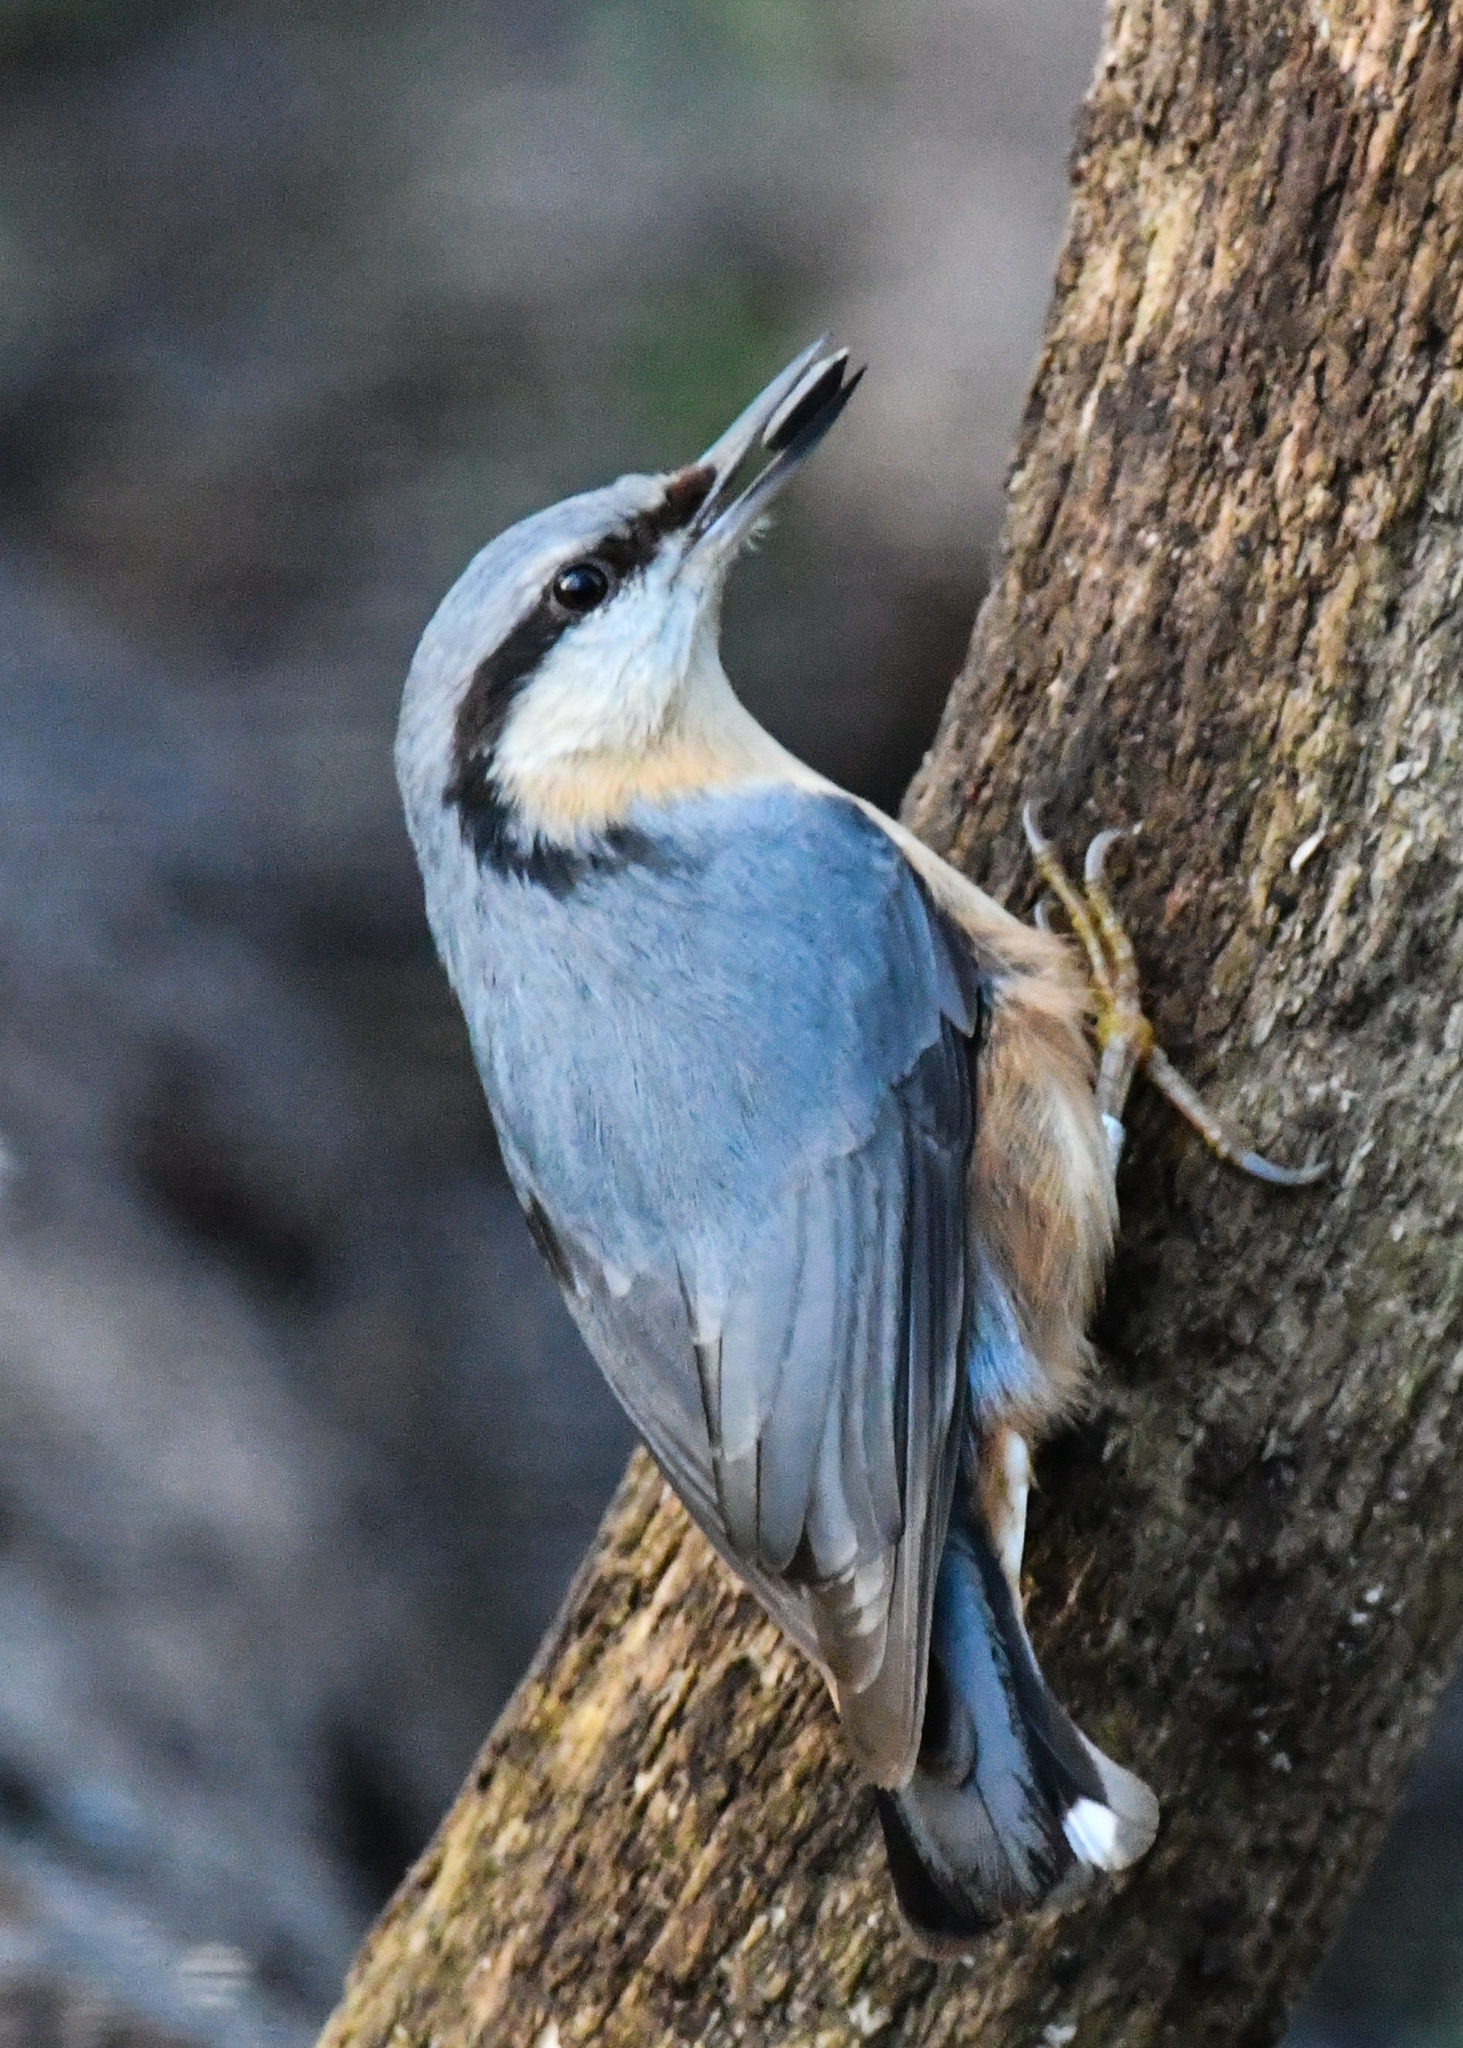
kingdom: Animalia
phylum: Chordata
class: Aves
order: Passeriformes
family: Sittidae
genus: Sitta
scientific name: Sitta europaea
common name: Eurasian nuthatch
